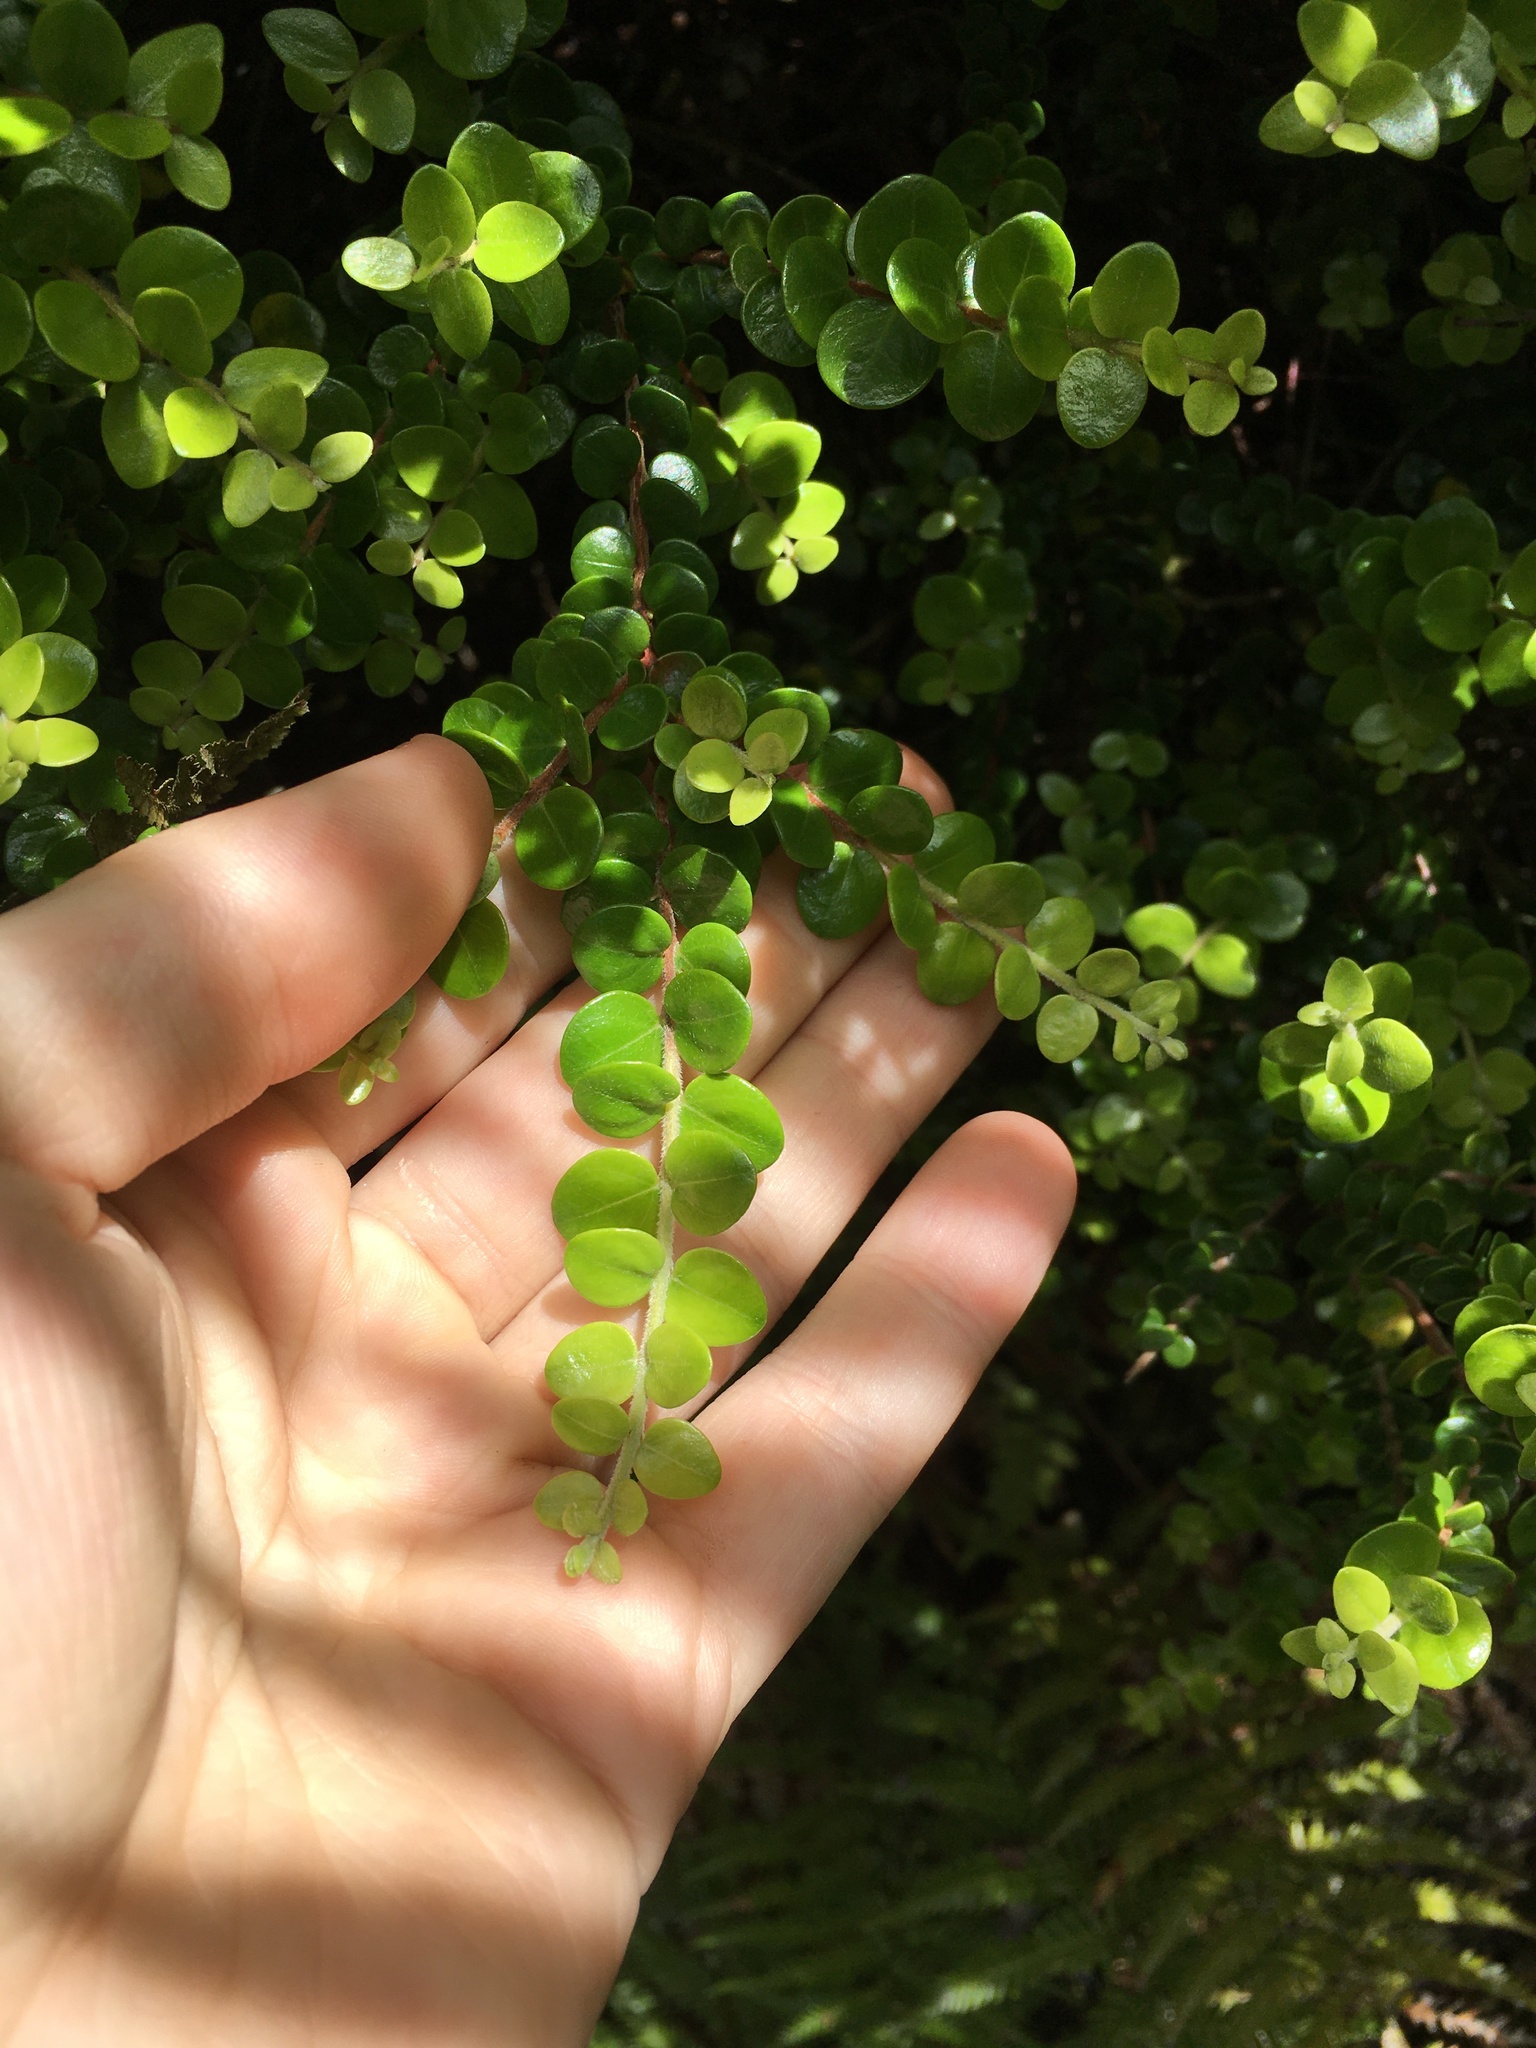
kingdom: Plantae
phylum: Tracheophyta
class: Magnoliopsida
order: Myrtales
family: Myrtaceae
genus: Metrosideros
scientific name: Metrosideros perforata
